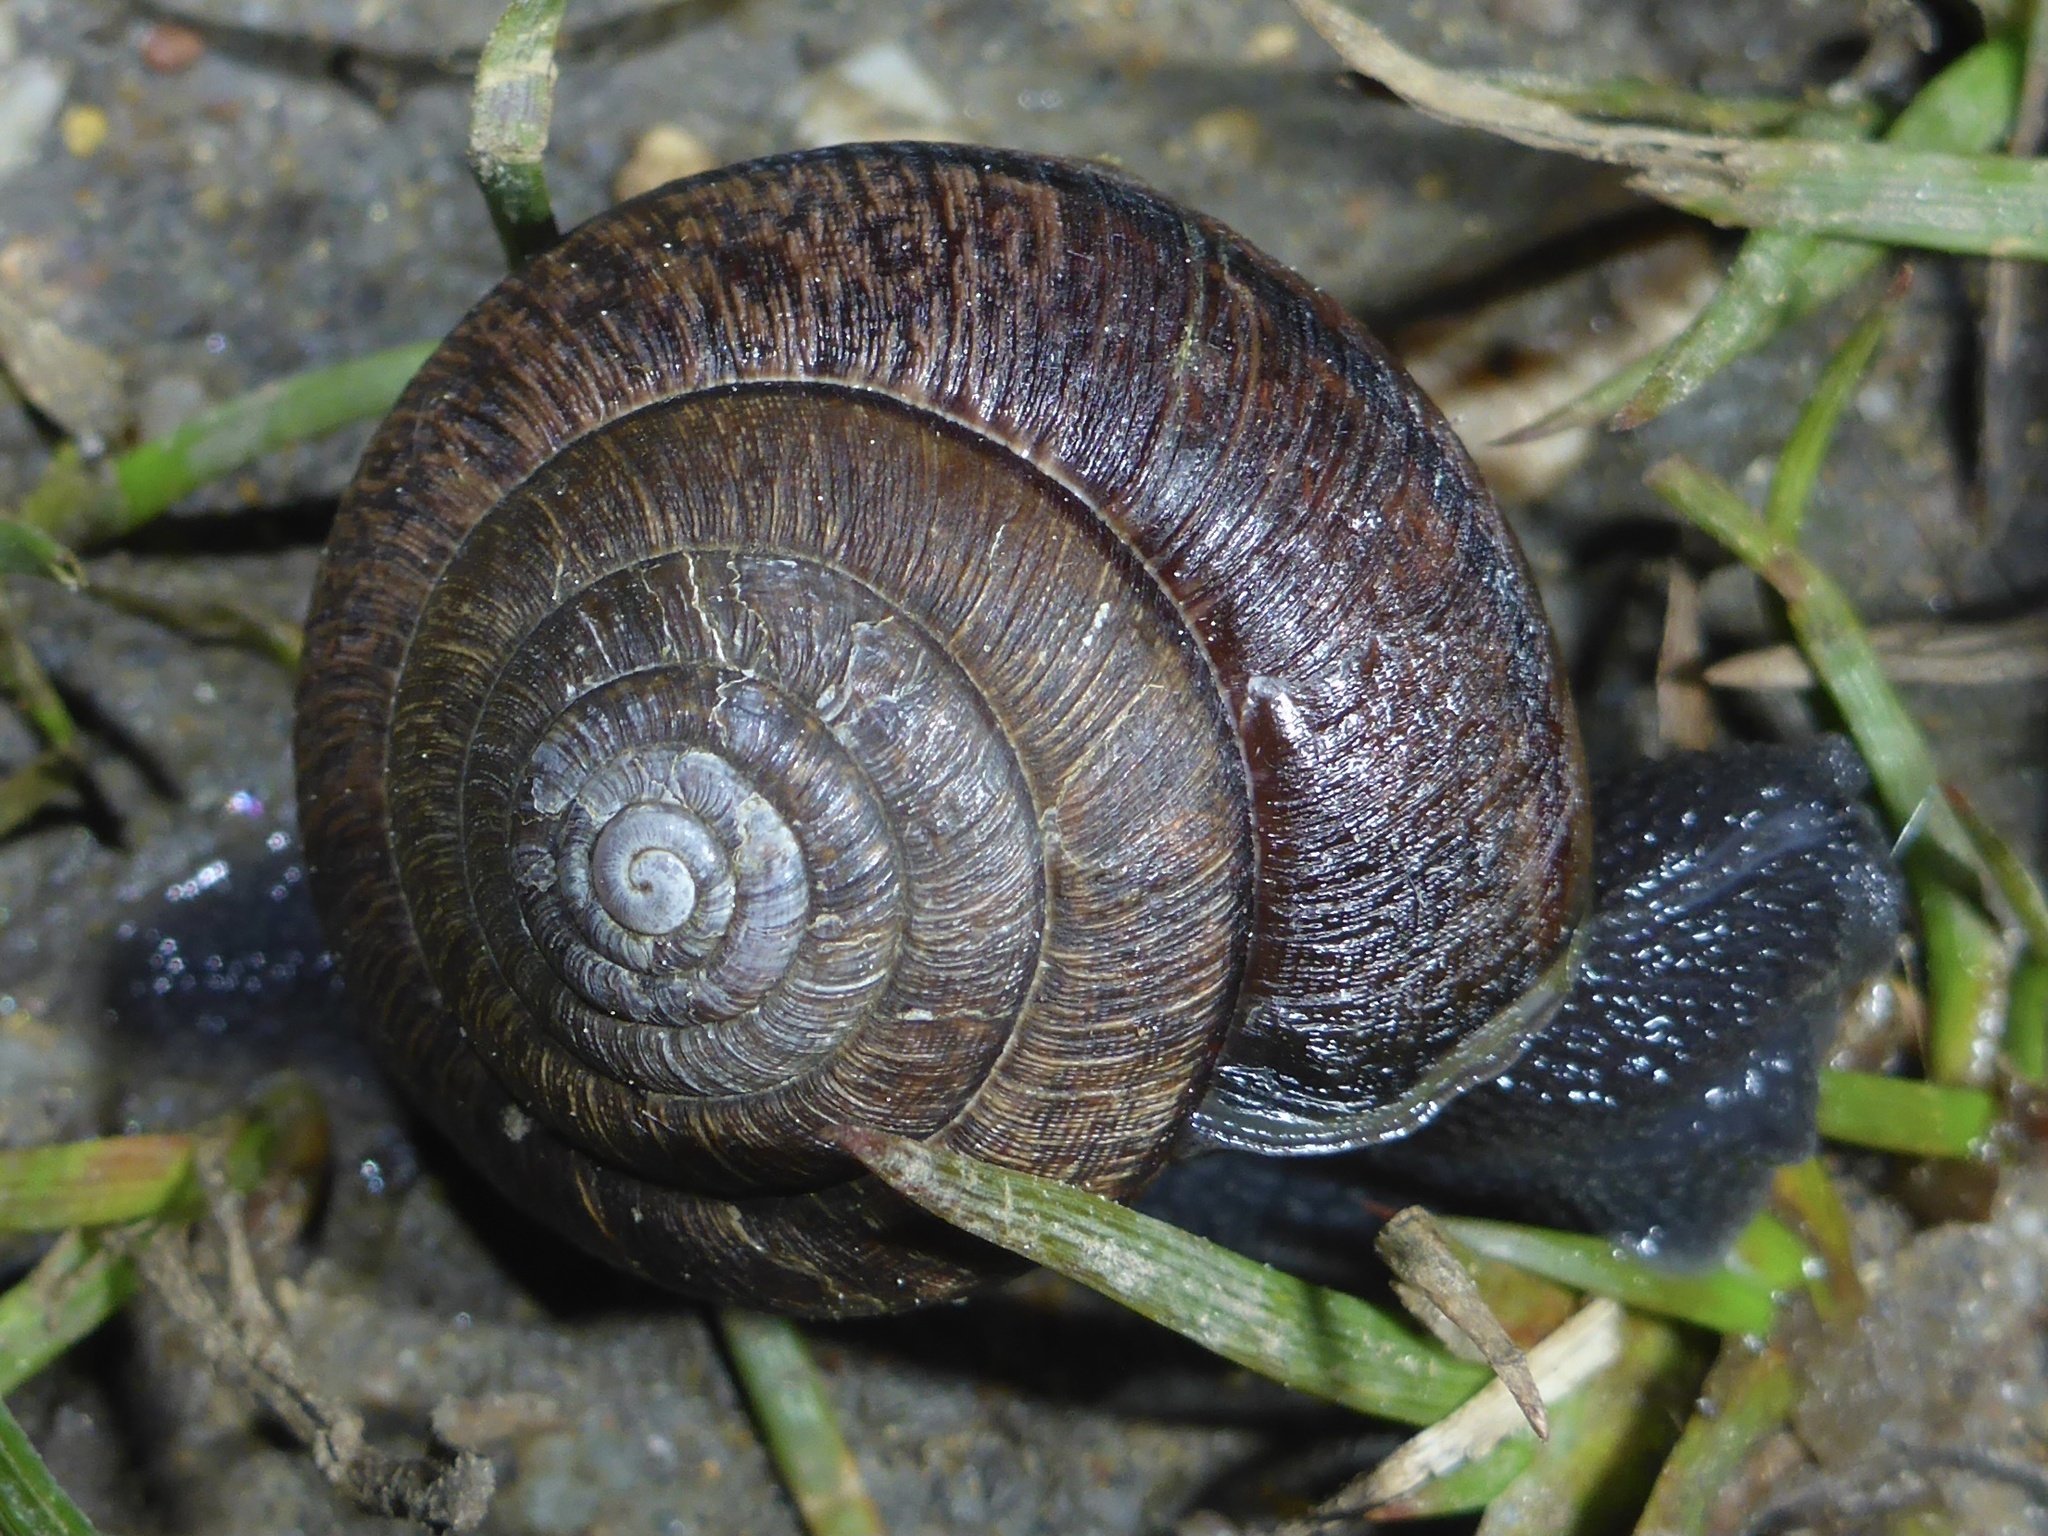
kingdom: Animalia
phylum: Mollusca
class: Gastropoda
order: Stylommatophora
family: Xanthonychidae
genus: Helminthoglypta
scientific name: Helminthoglypta arrosa
